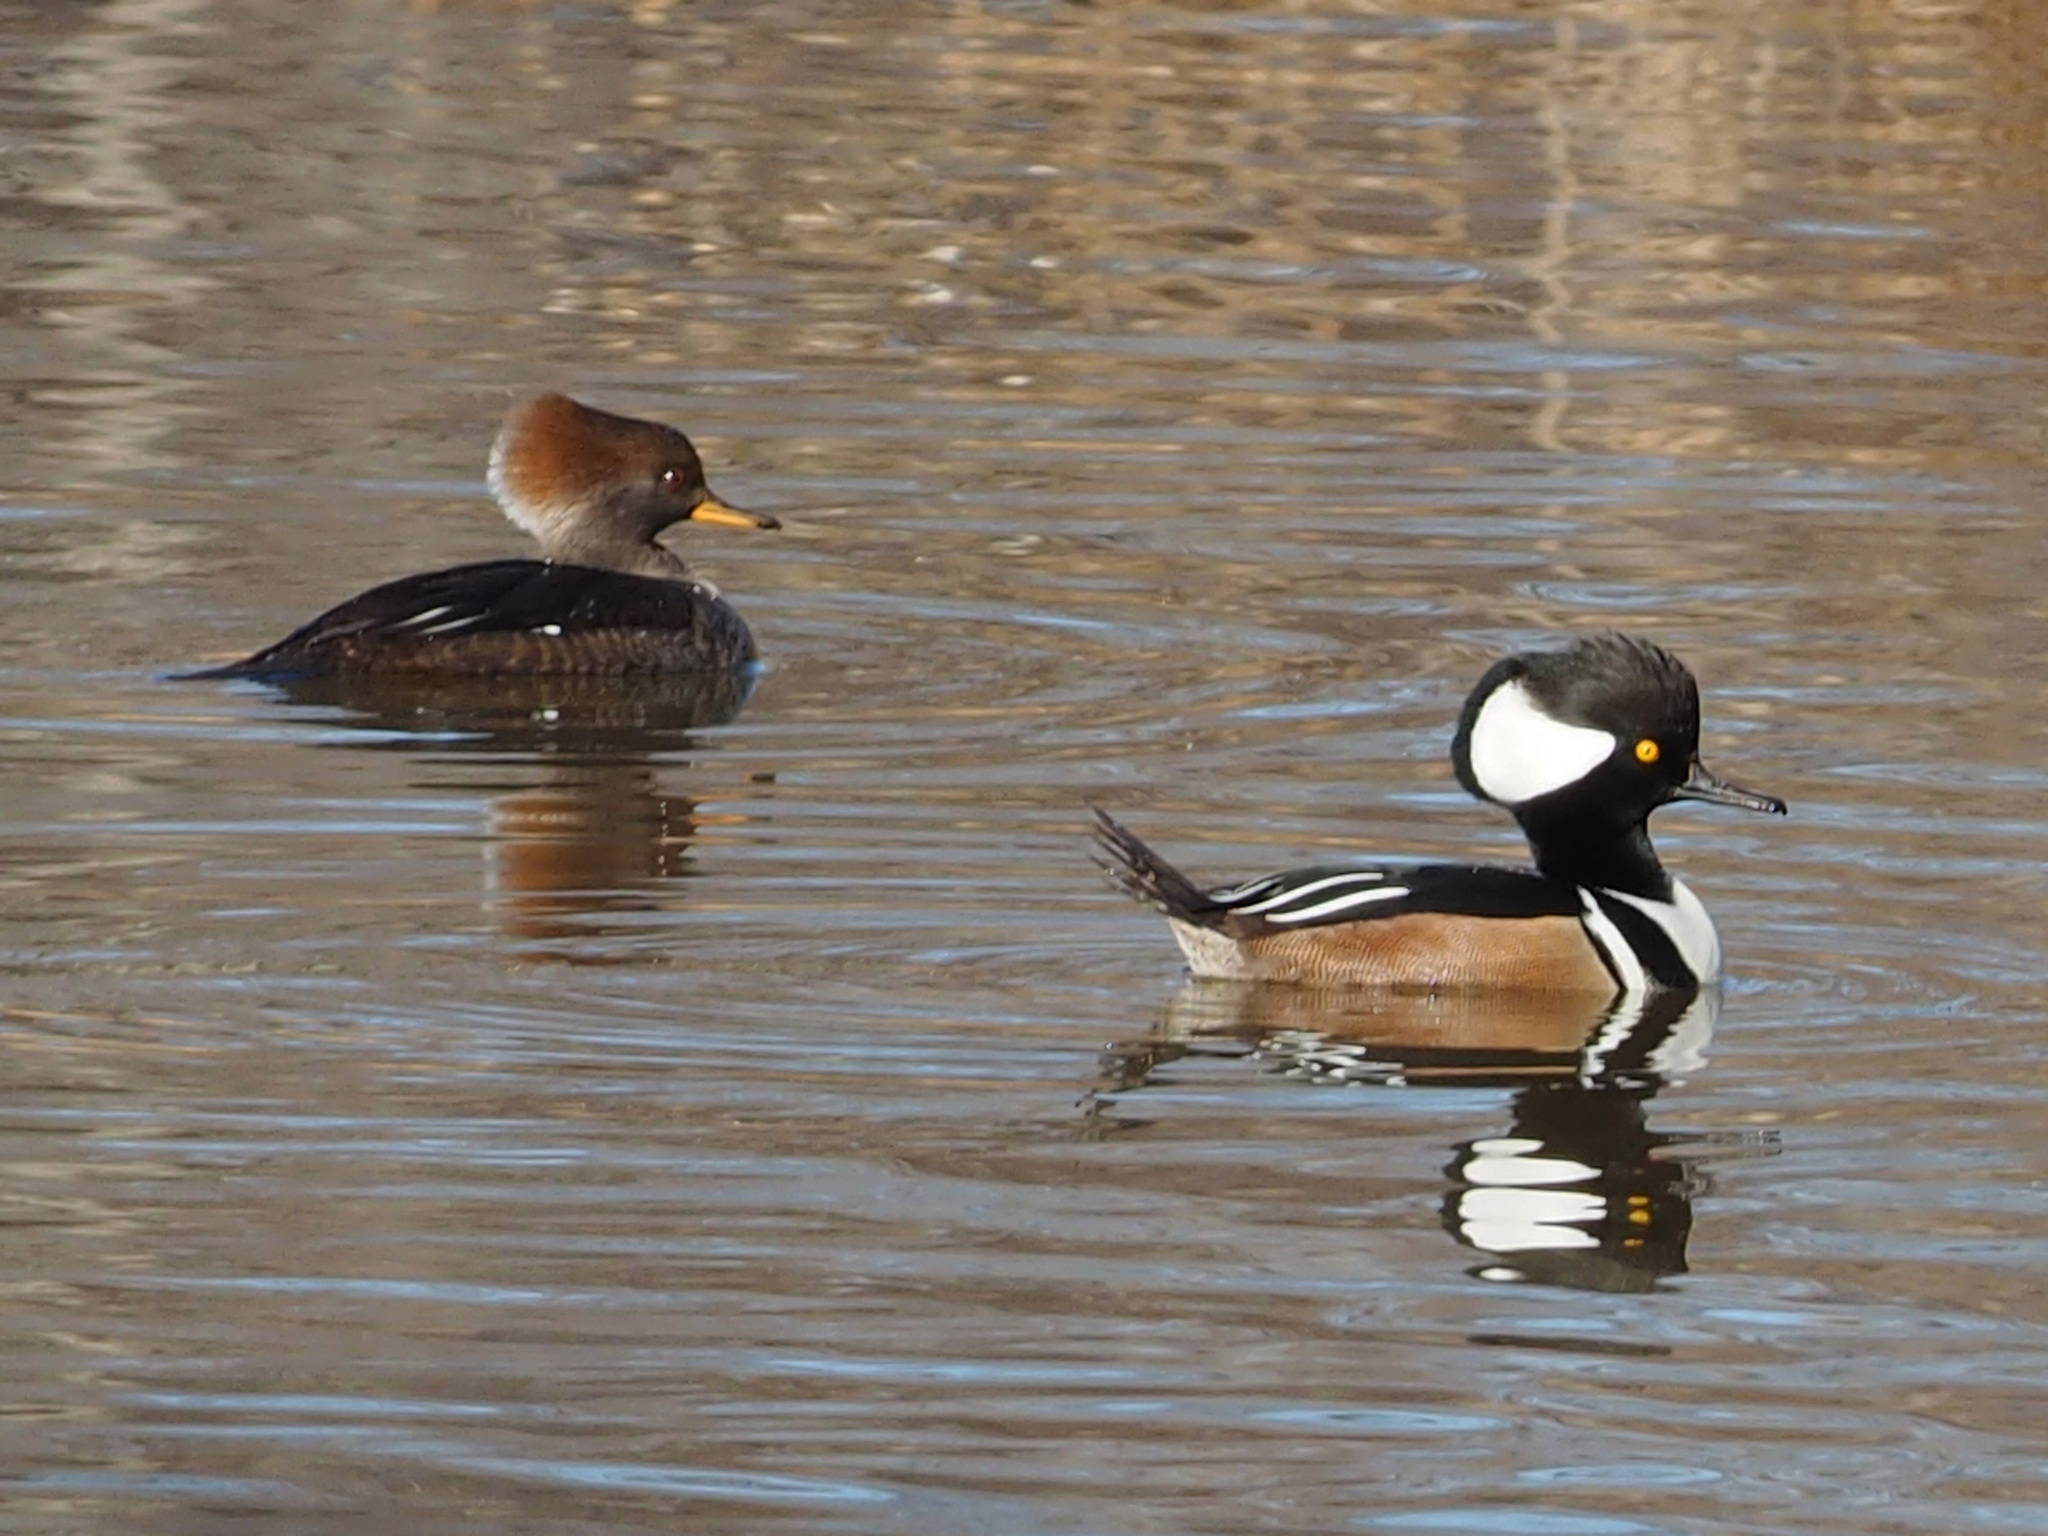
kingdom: Animalia
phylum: Chordata
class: Aves
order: Anseriformes
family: Anatidae
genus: Lophodytes
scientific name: Lophodytes cucullatus
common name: Hooded merganser
